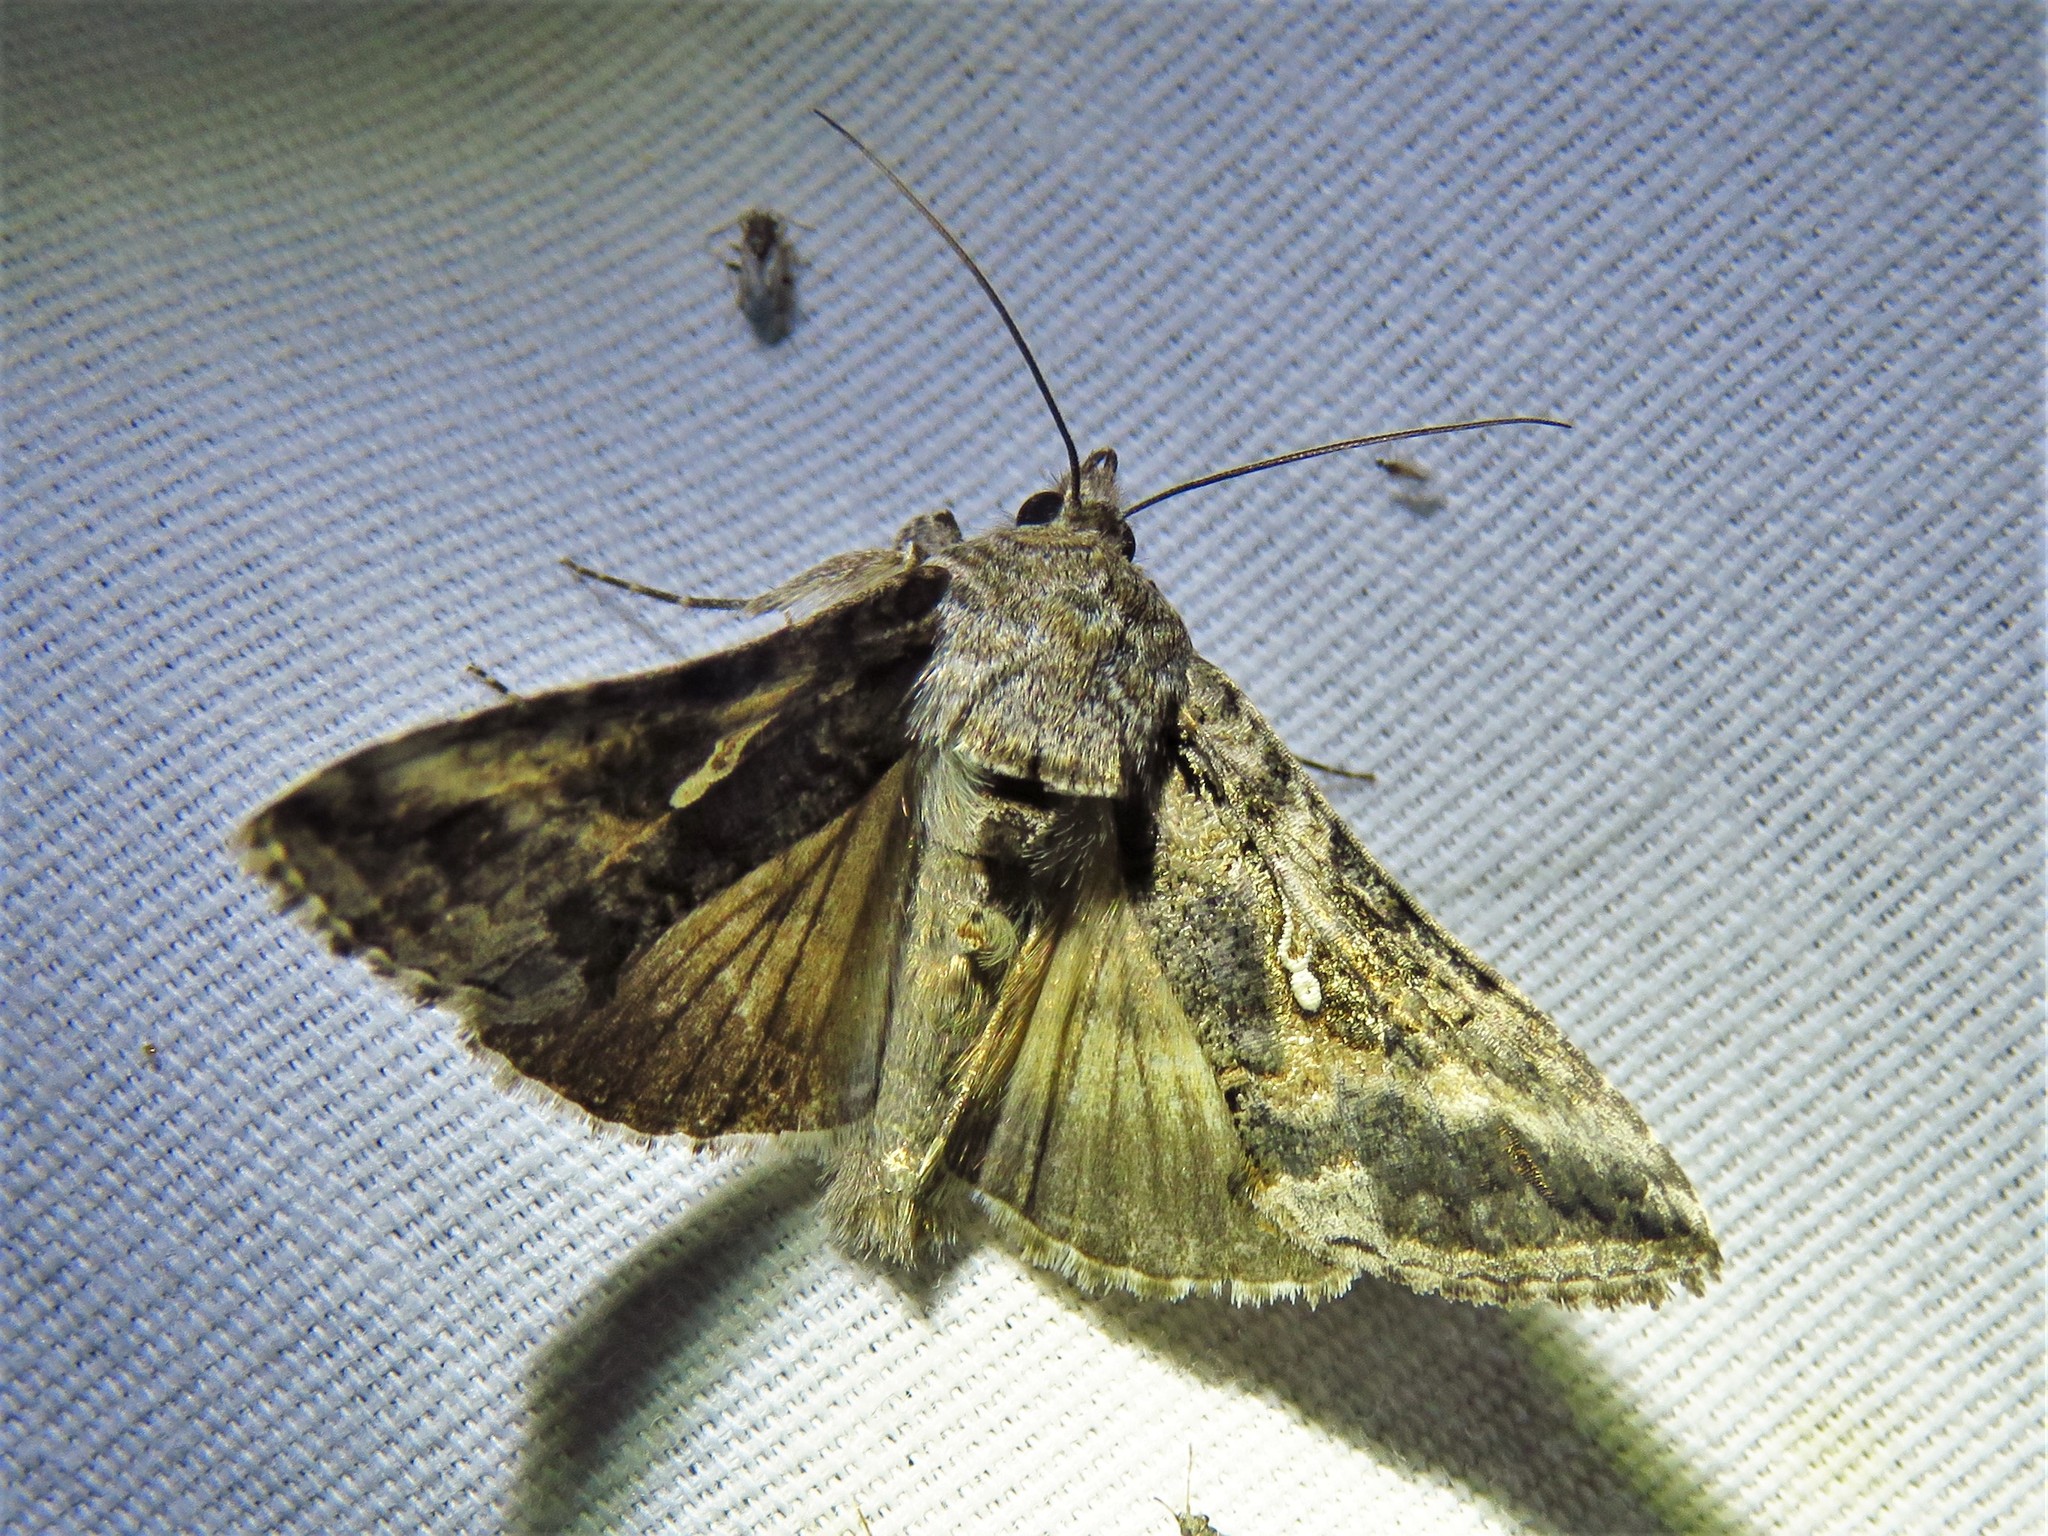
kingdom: Animalia
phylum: Arthropoda
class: Insecta
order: Lepidoptera
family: Noctuidae
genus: Rachiplusia
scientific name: Rachiplusia ou
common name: Gray looper moth
